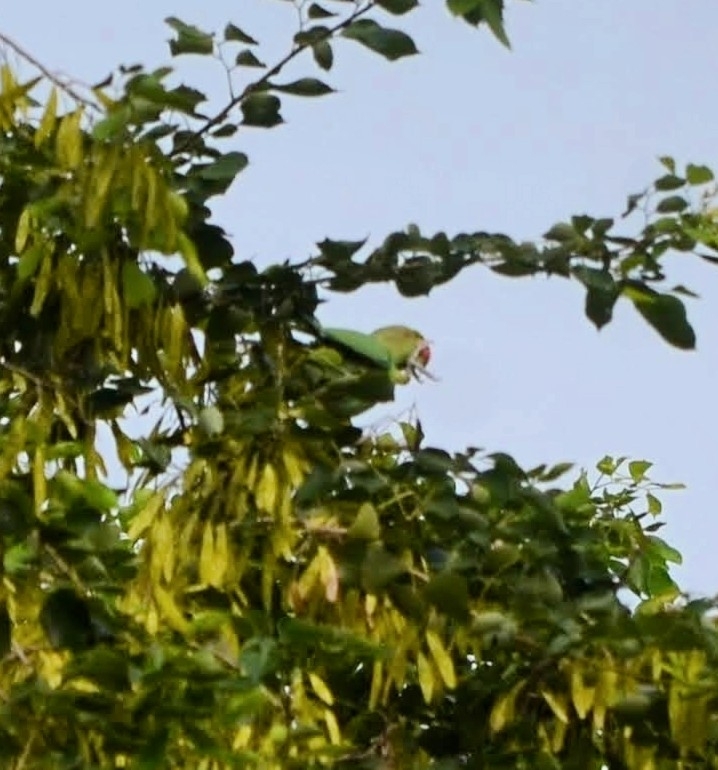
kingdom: Animalia
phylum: Chordata
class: Aves
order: Psittaciformes
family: Psittacidae
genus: Psittacula
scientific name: Psittacula krameri
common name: Rose-ringed parakeet
